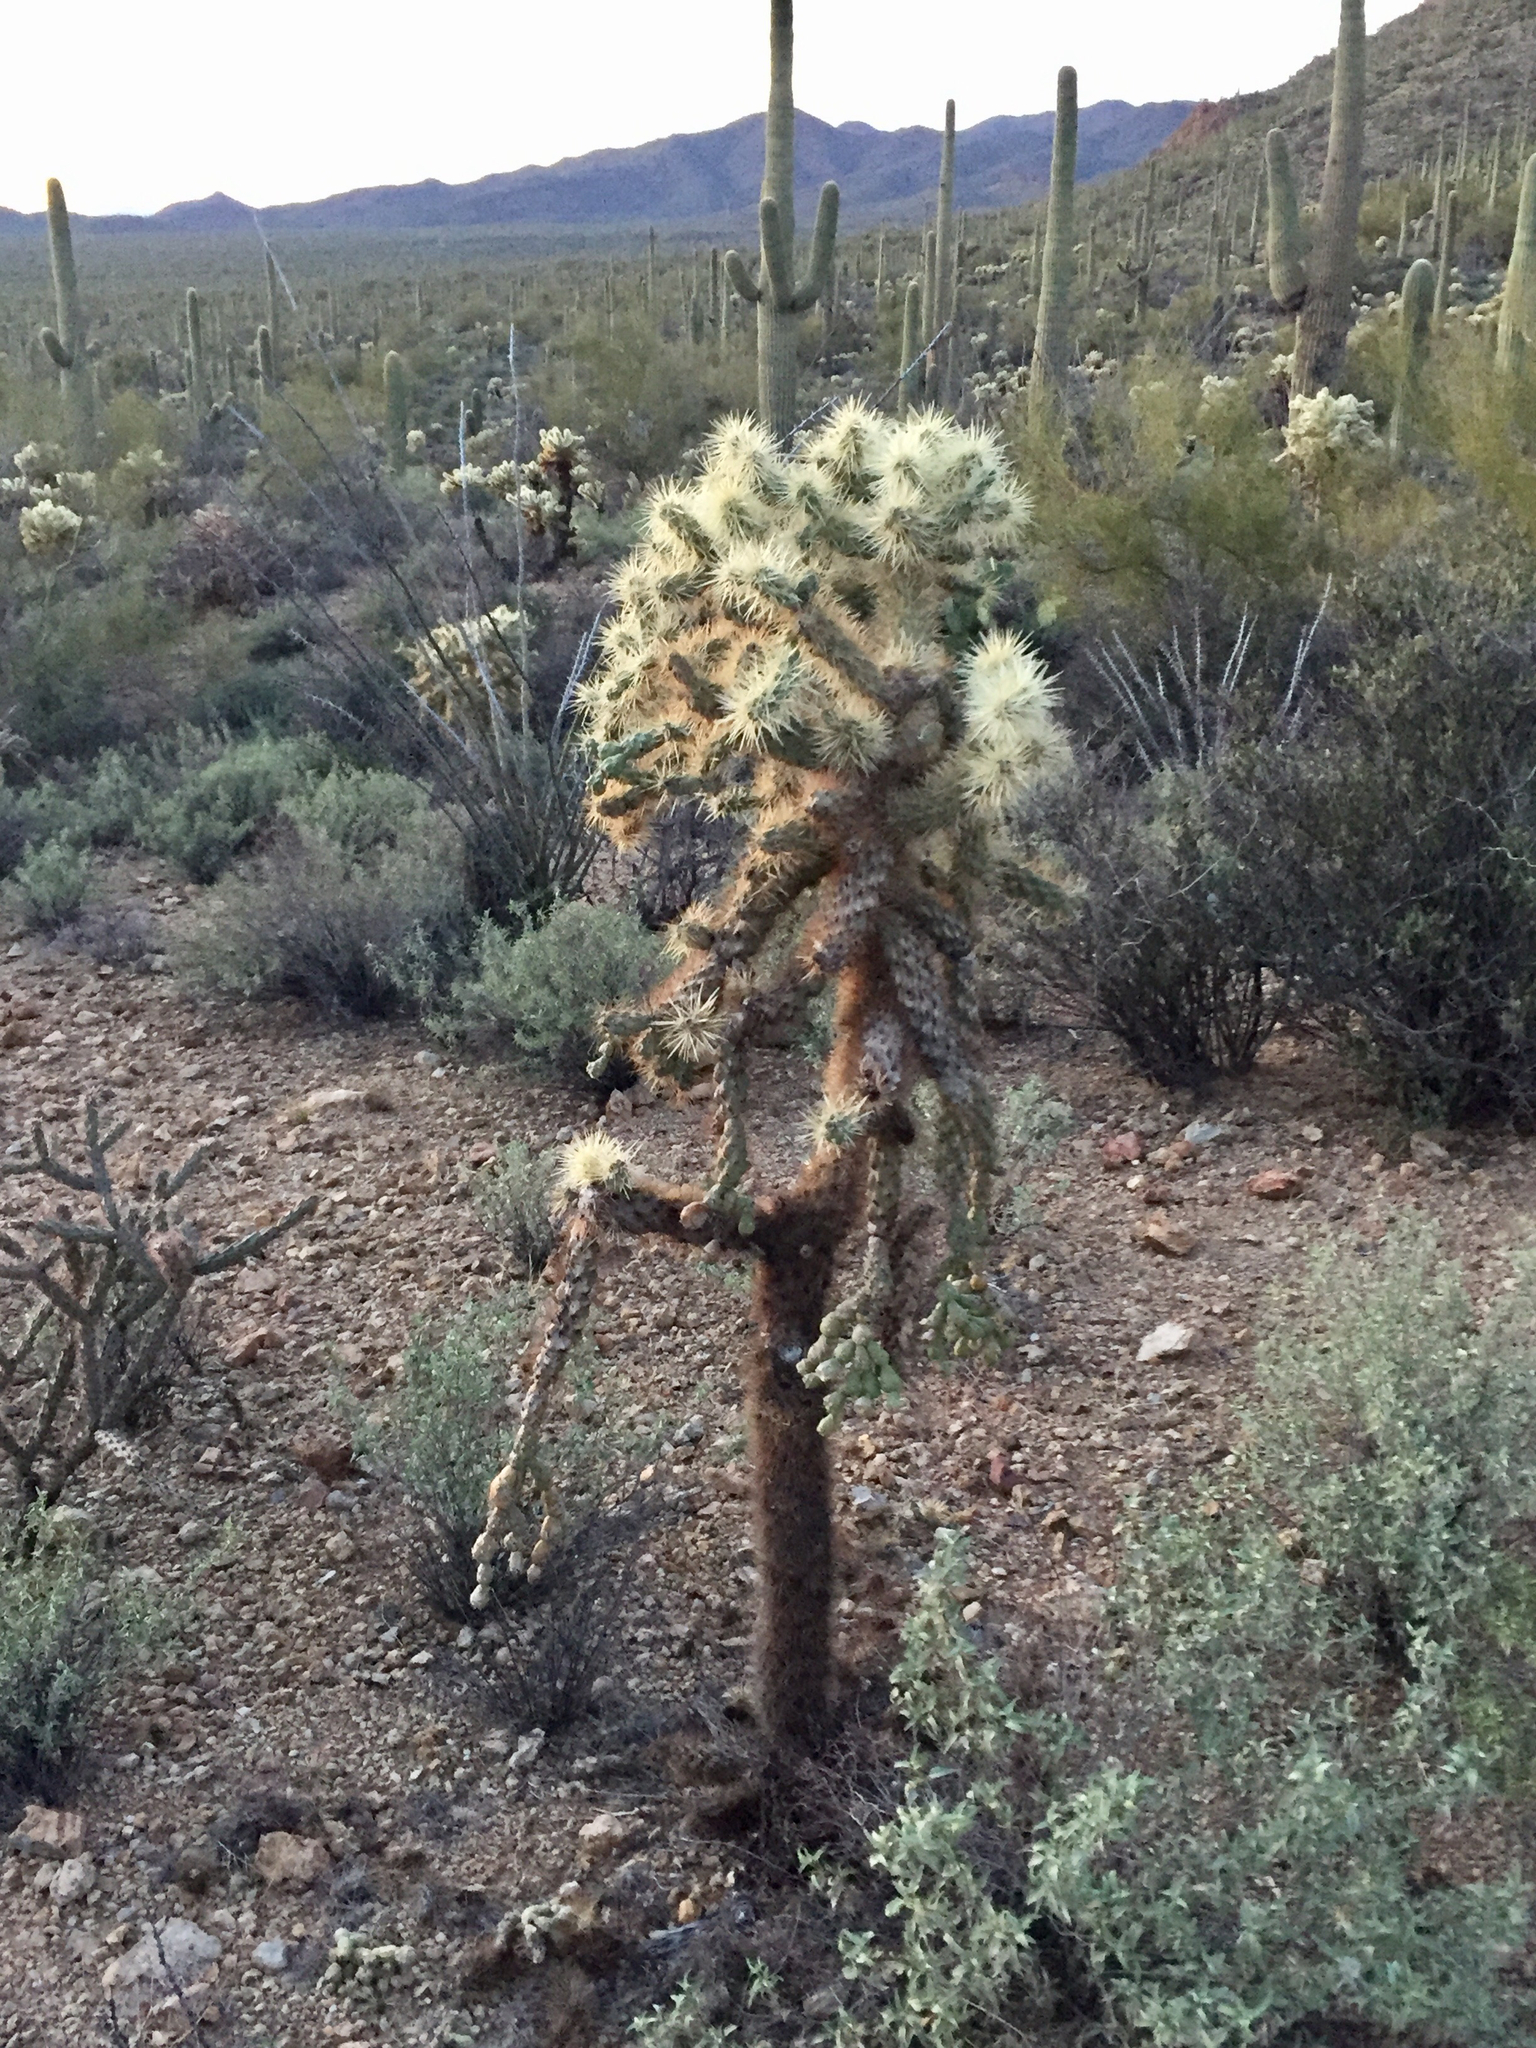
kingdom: Plantae
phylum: Tracheophyta
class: Magnoliopsida
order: Caryophyllales
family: Cactaceae
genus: Cylindropuntia
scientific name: Cylindropuntia fulgida
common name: Jumping cholla
